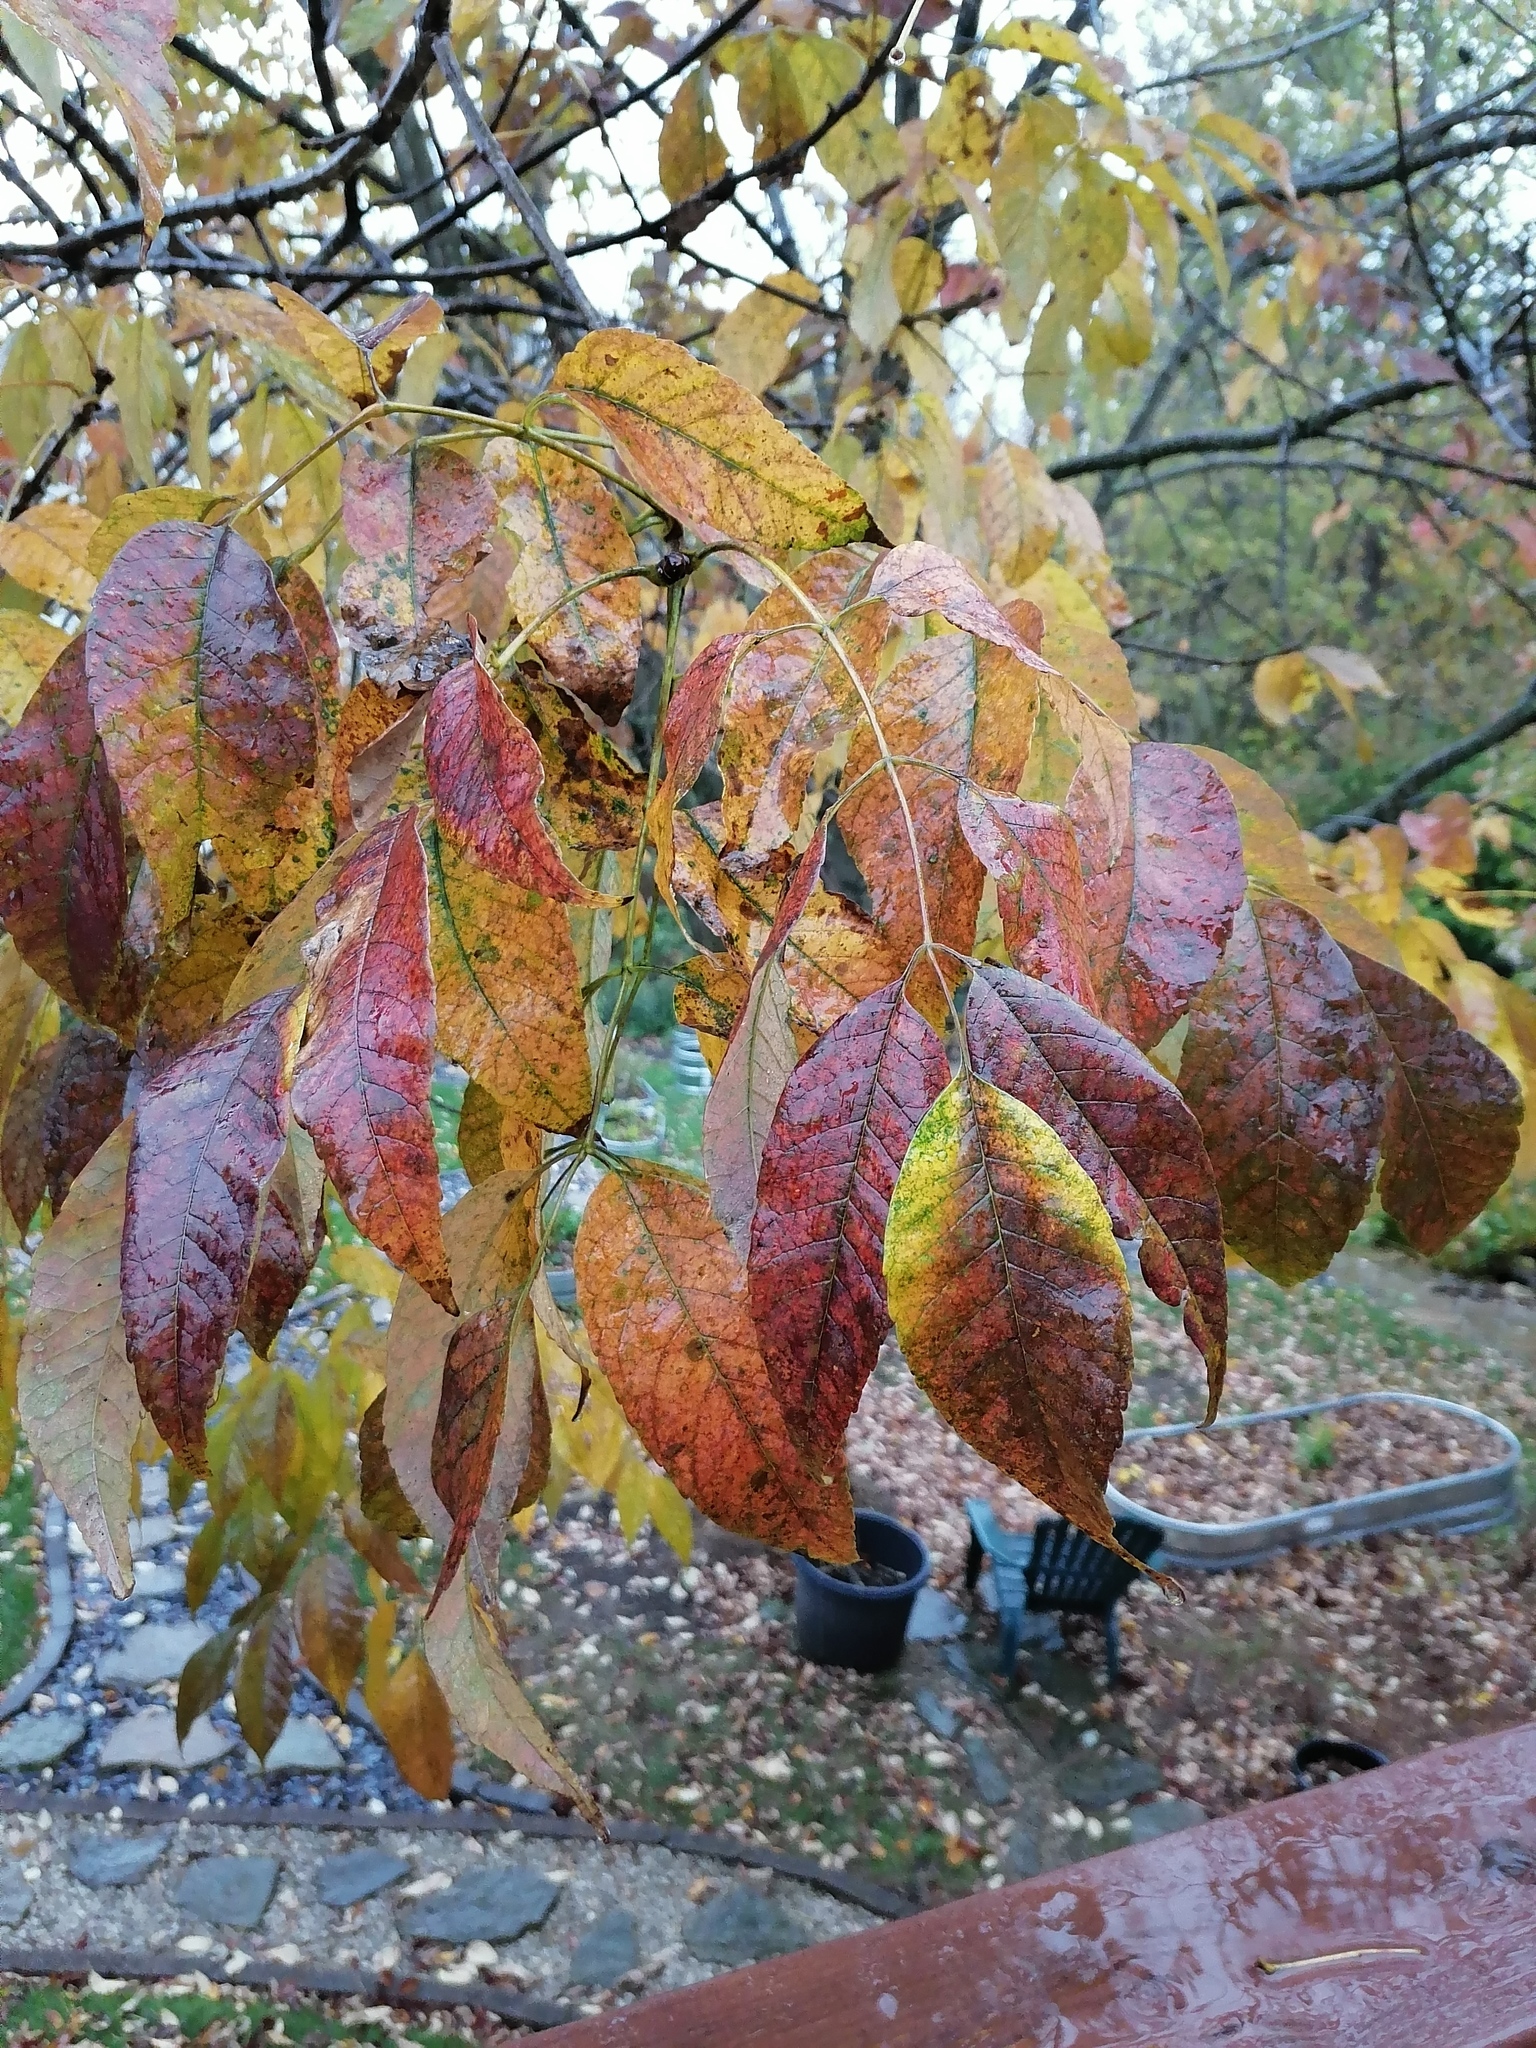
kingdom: Plantae
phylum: Tracheophyta
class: Magnoliopsida
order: Lamiales
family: Oleaceae
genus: Fraxinus
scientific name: Fraxinus americana
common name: White ash
